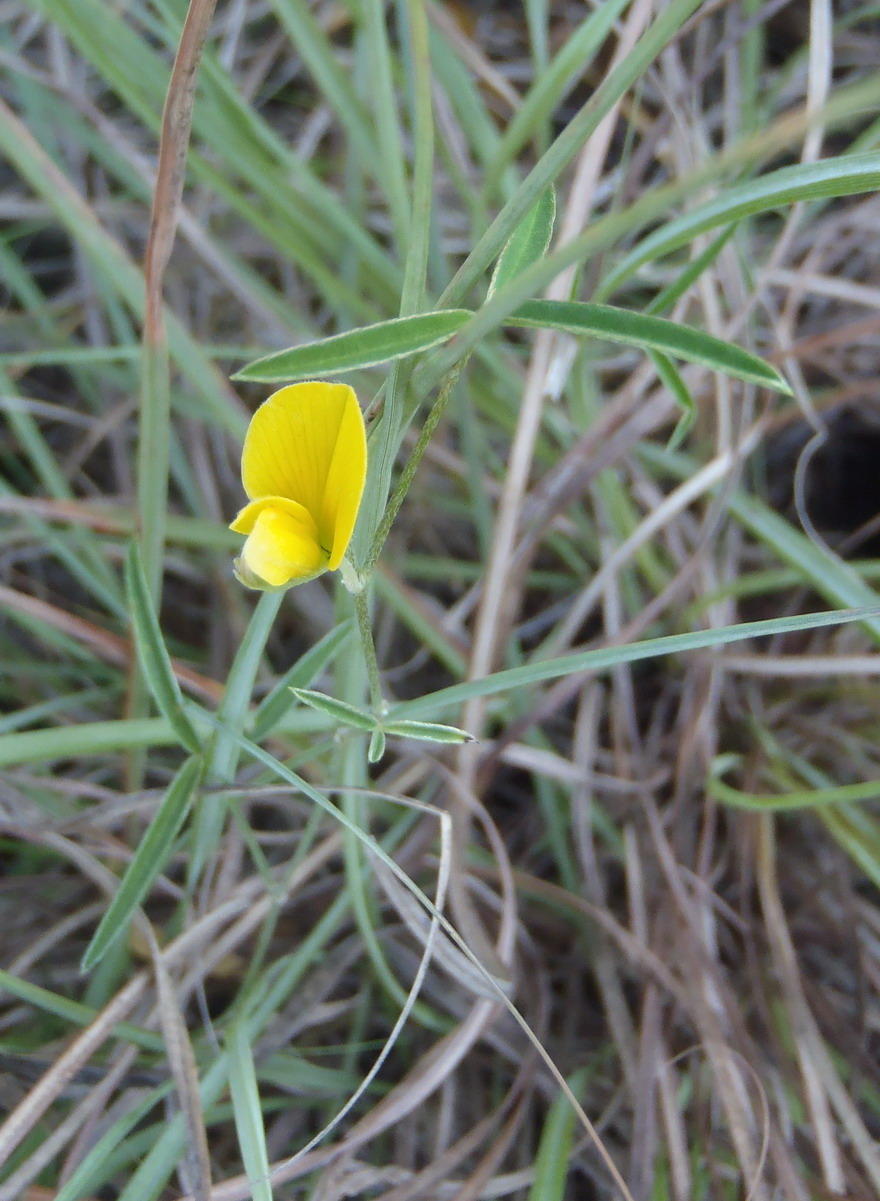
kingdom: Plantae
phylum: Tracheophyta
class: Magnoliopsida
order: Fabales
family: Fabaceae
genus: Argyrolobium
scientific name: Argyrolobium rarum
